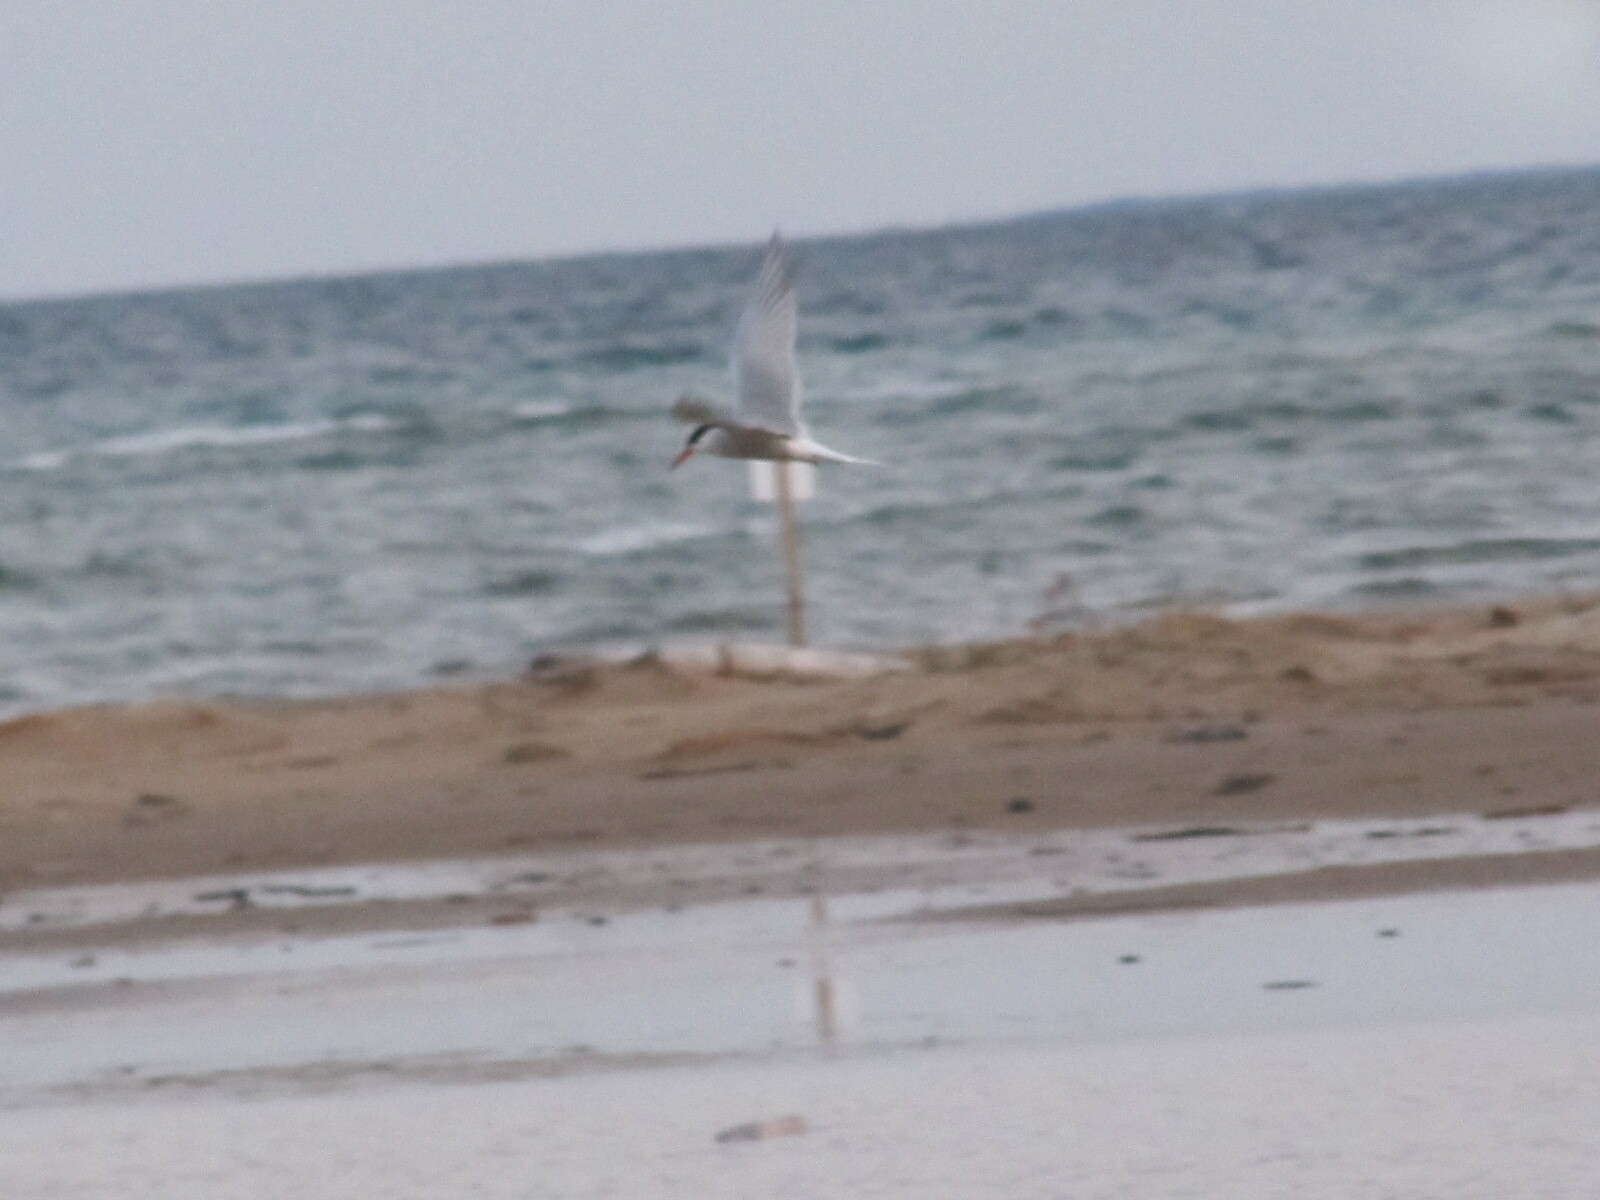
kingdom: Animalia
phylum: Chordata
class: Aves
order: Charadriiformes
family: Laridae
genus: Sterna
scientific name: Sterna hirundo
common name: Common tern
